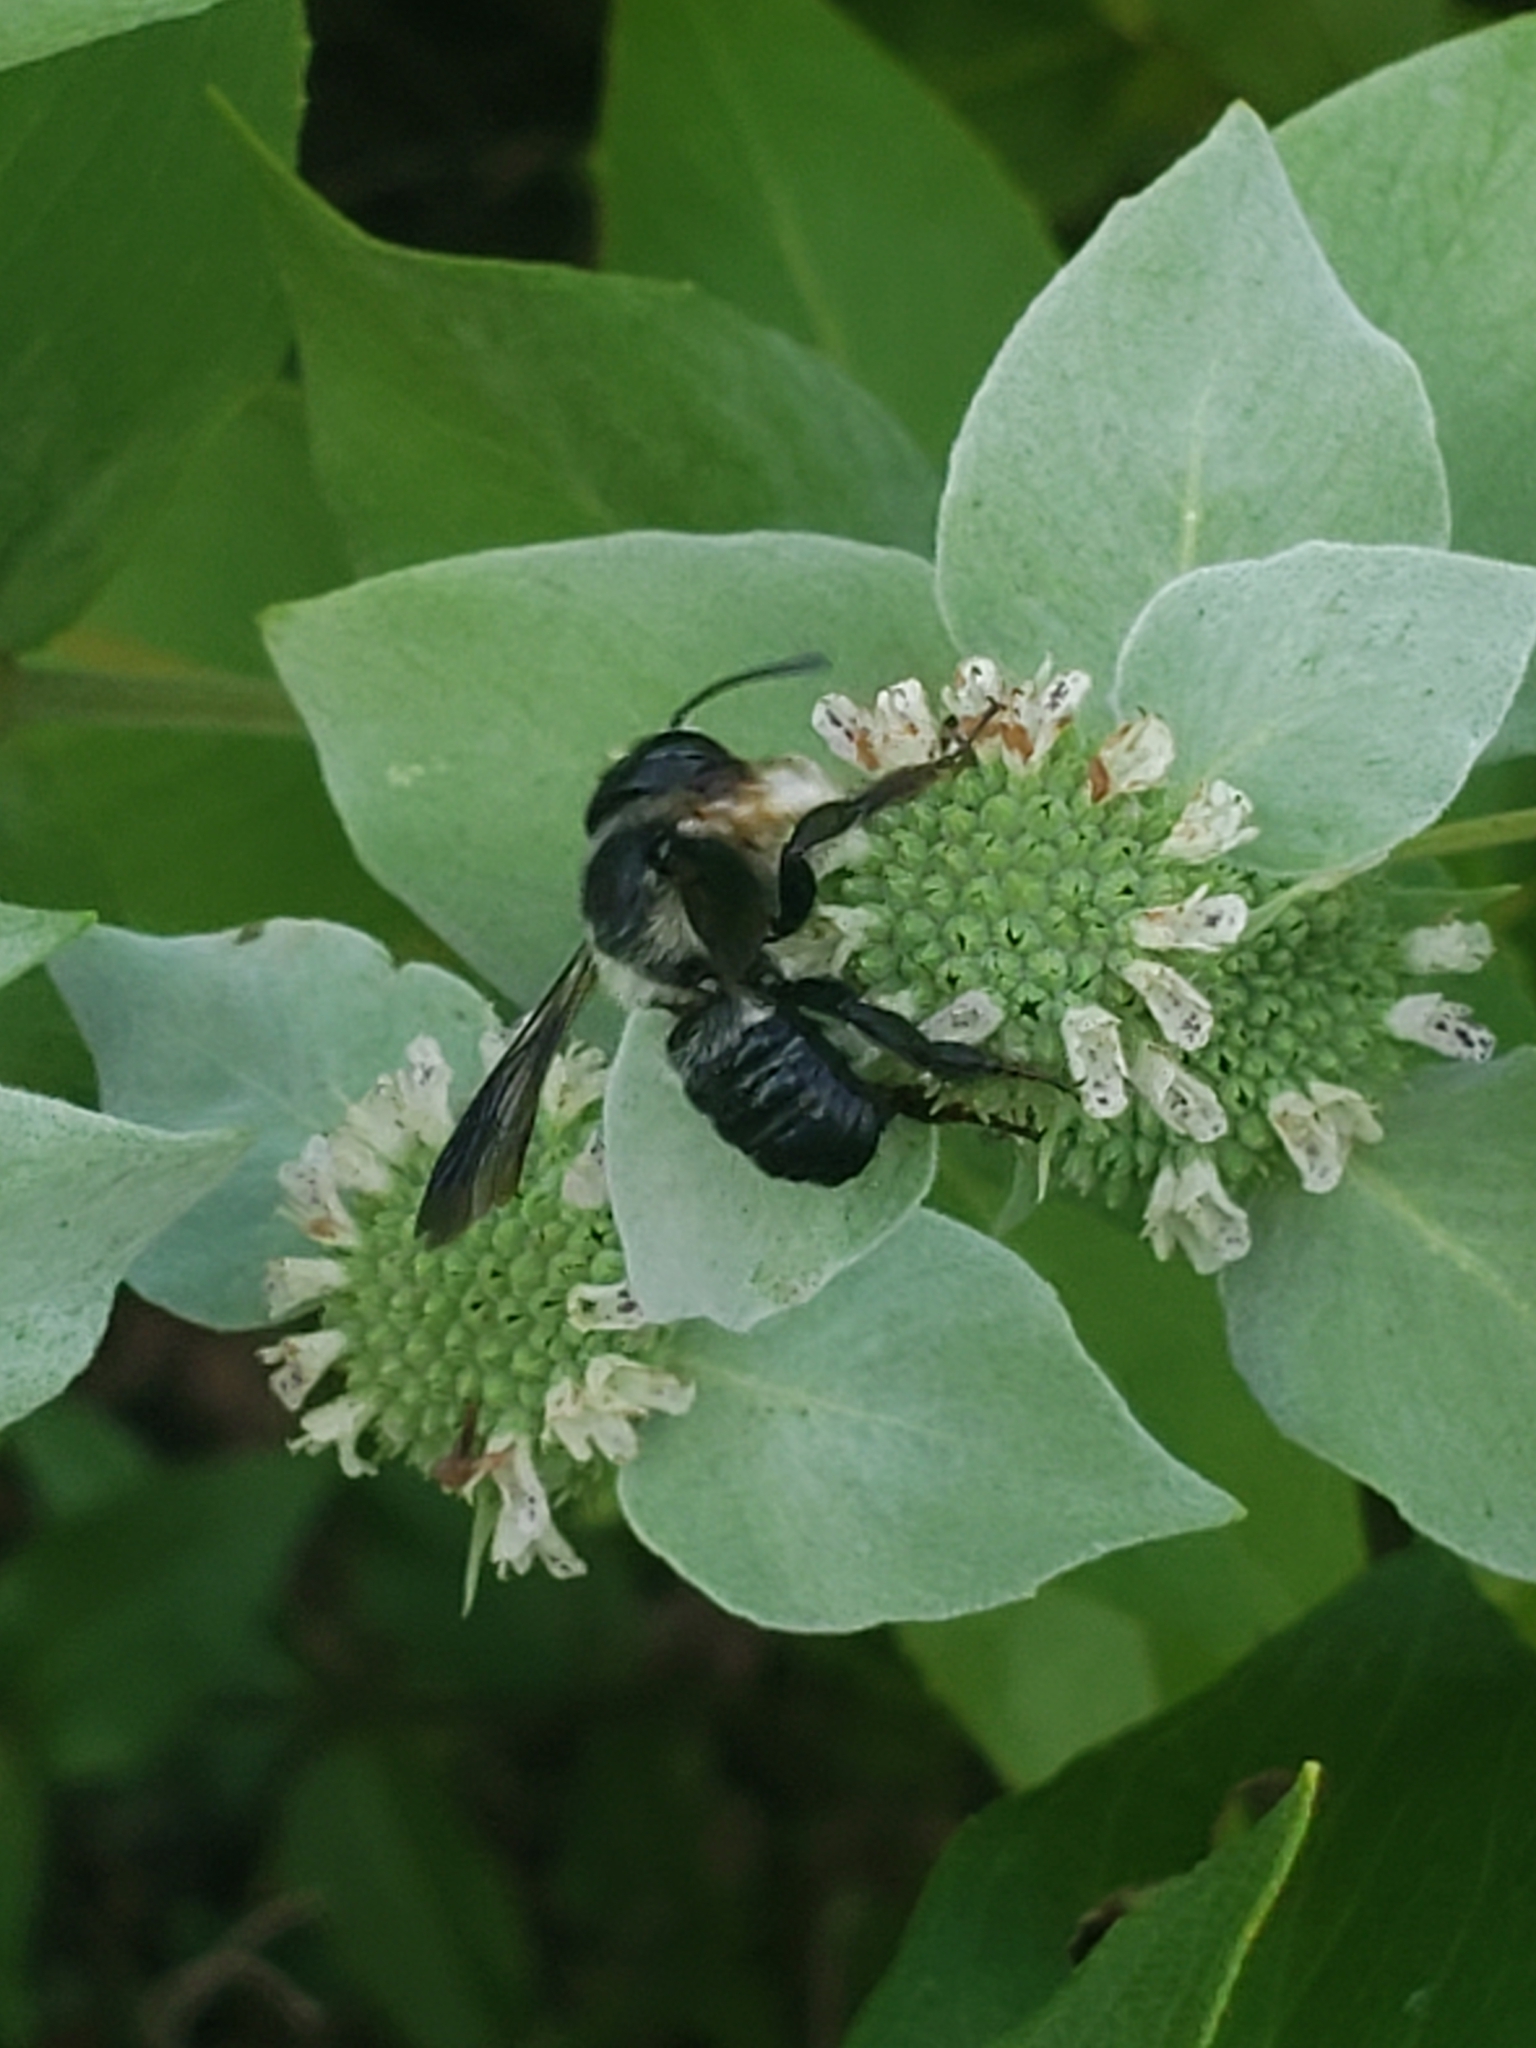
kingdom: Animalia
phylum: Arthropoda
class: Insecta
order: Hymenoptera
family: Megachilidae
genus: Megachile
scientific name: Megachile xylocopoides
